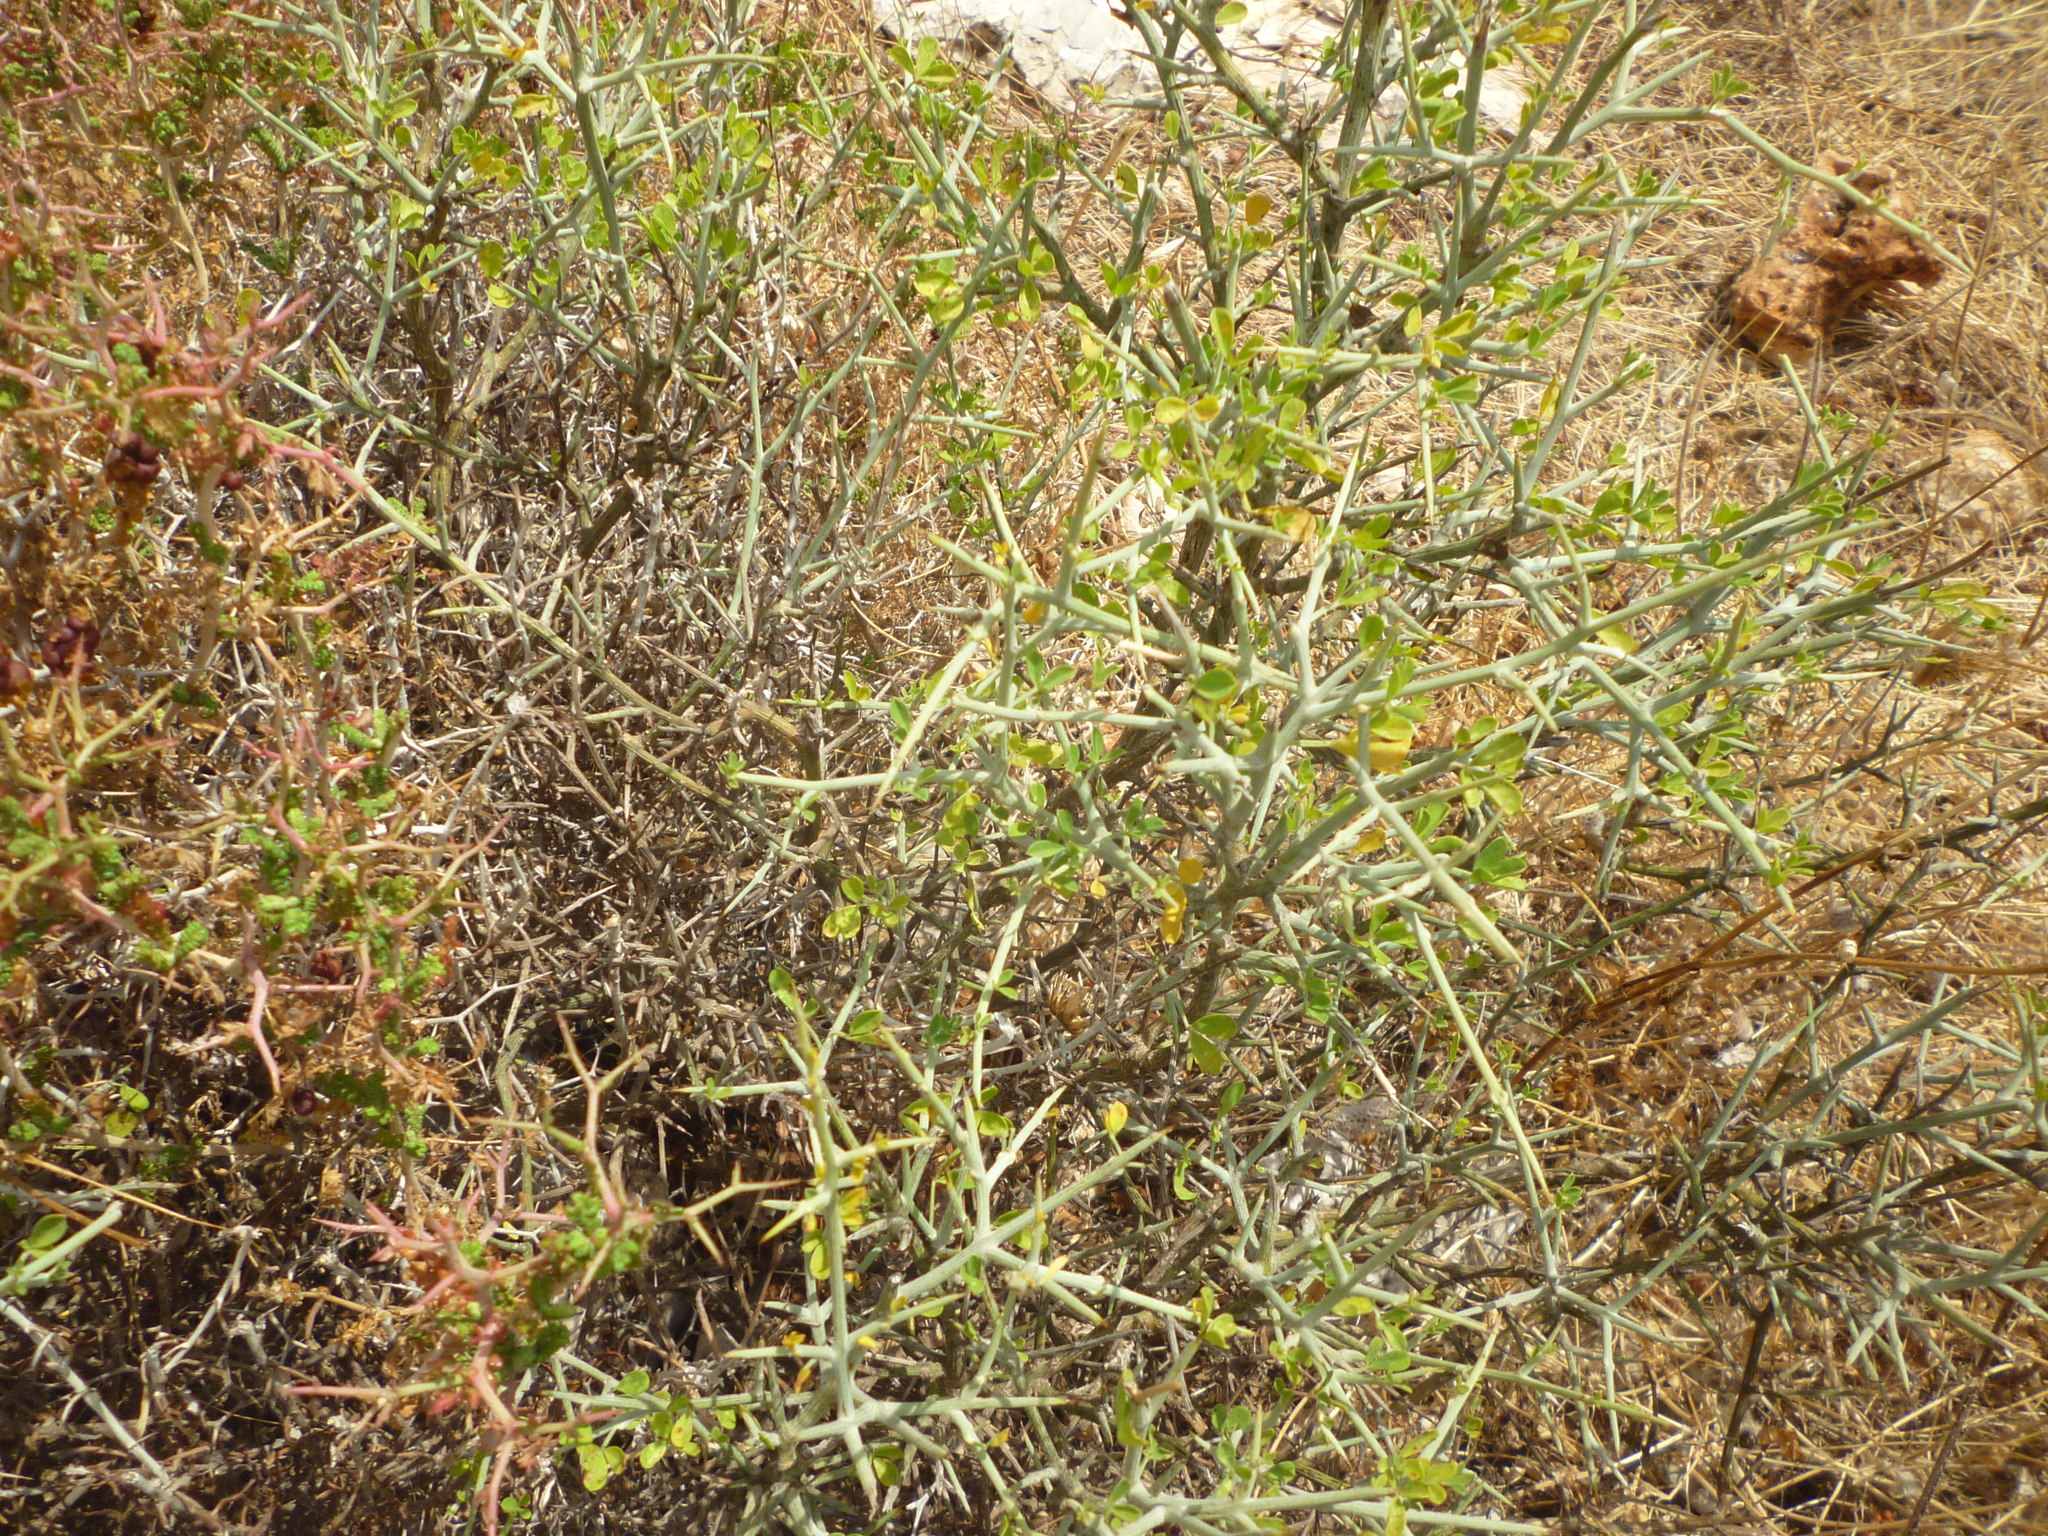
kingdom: Plantae
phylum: Tracheophyta
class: Magnoliopsida
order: Fabales
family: Fabaceae
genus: Calicotome
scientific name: Calicotome villosa
